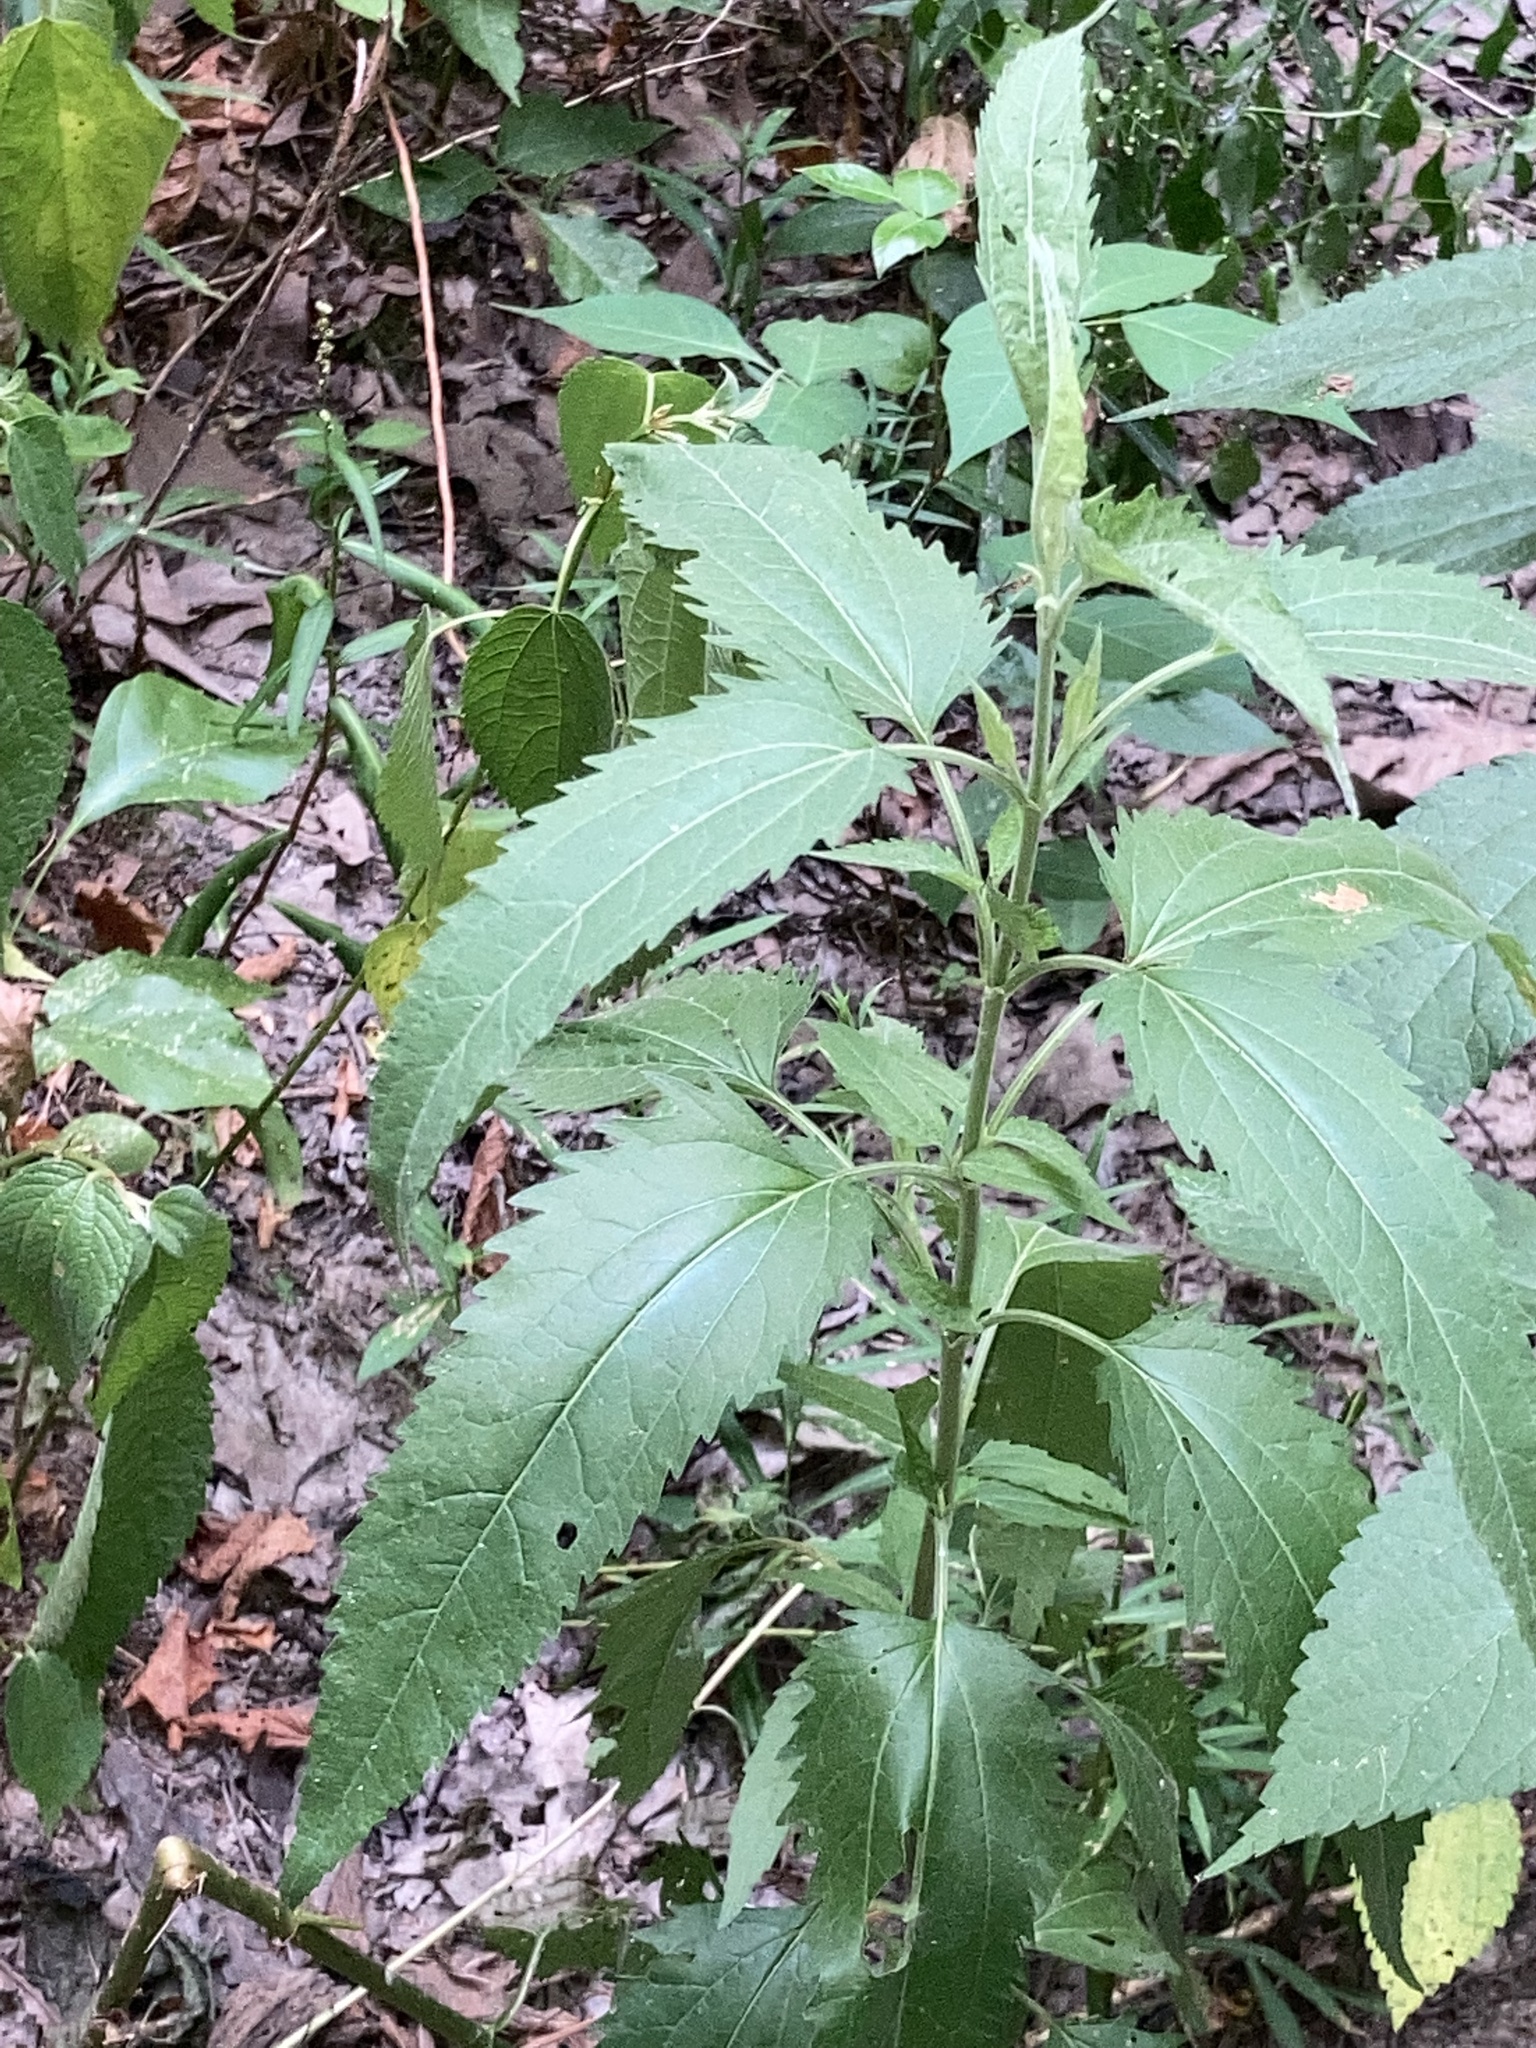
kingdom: Plantae
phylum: Tracheophyta
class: Magnoliopsida
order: Asterales
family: Asteraceae
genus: Eupatorium
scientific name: Eupatorium serotinum
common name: Late boneset
